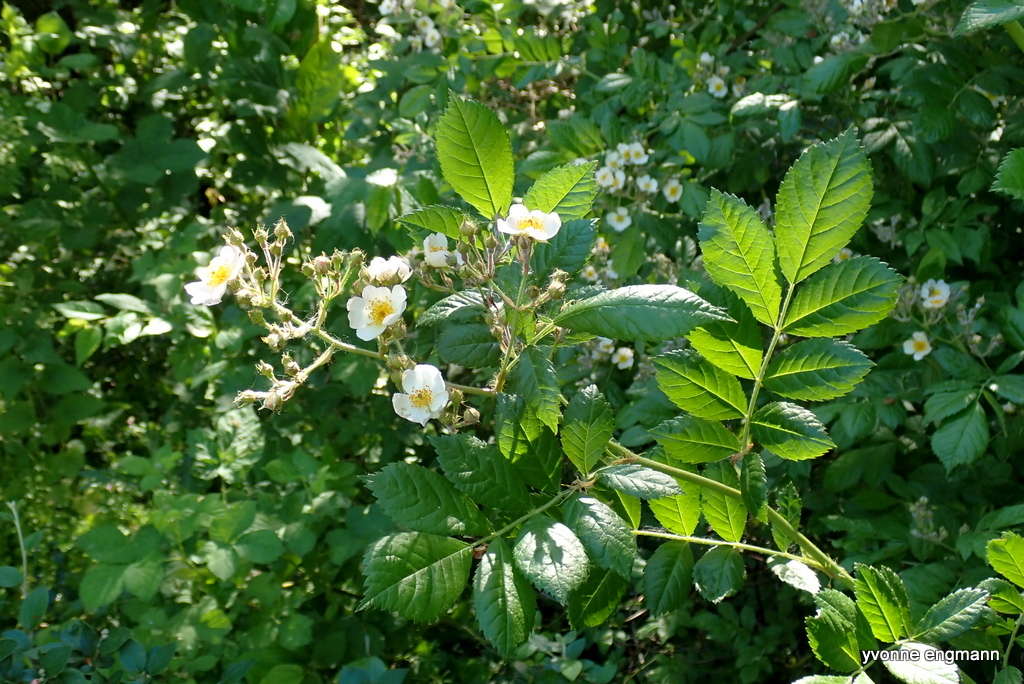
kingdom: Plantae
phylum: Tracheophyta
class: Magnoliopsida
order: Rosales
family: Rosaceae
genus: Rosa
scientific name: Rosa multiflora
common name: Multiflora rose
